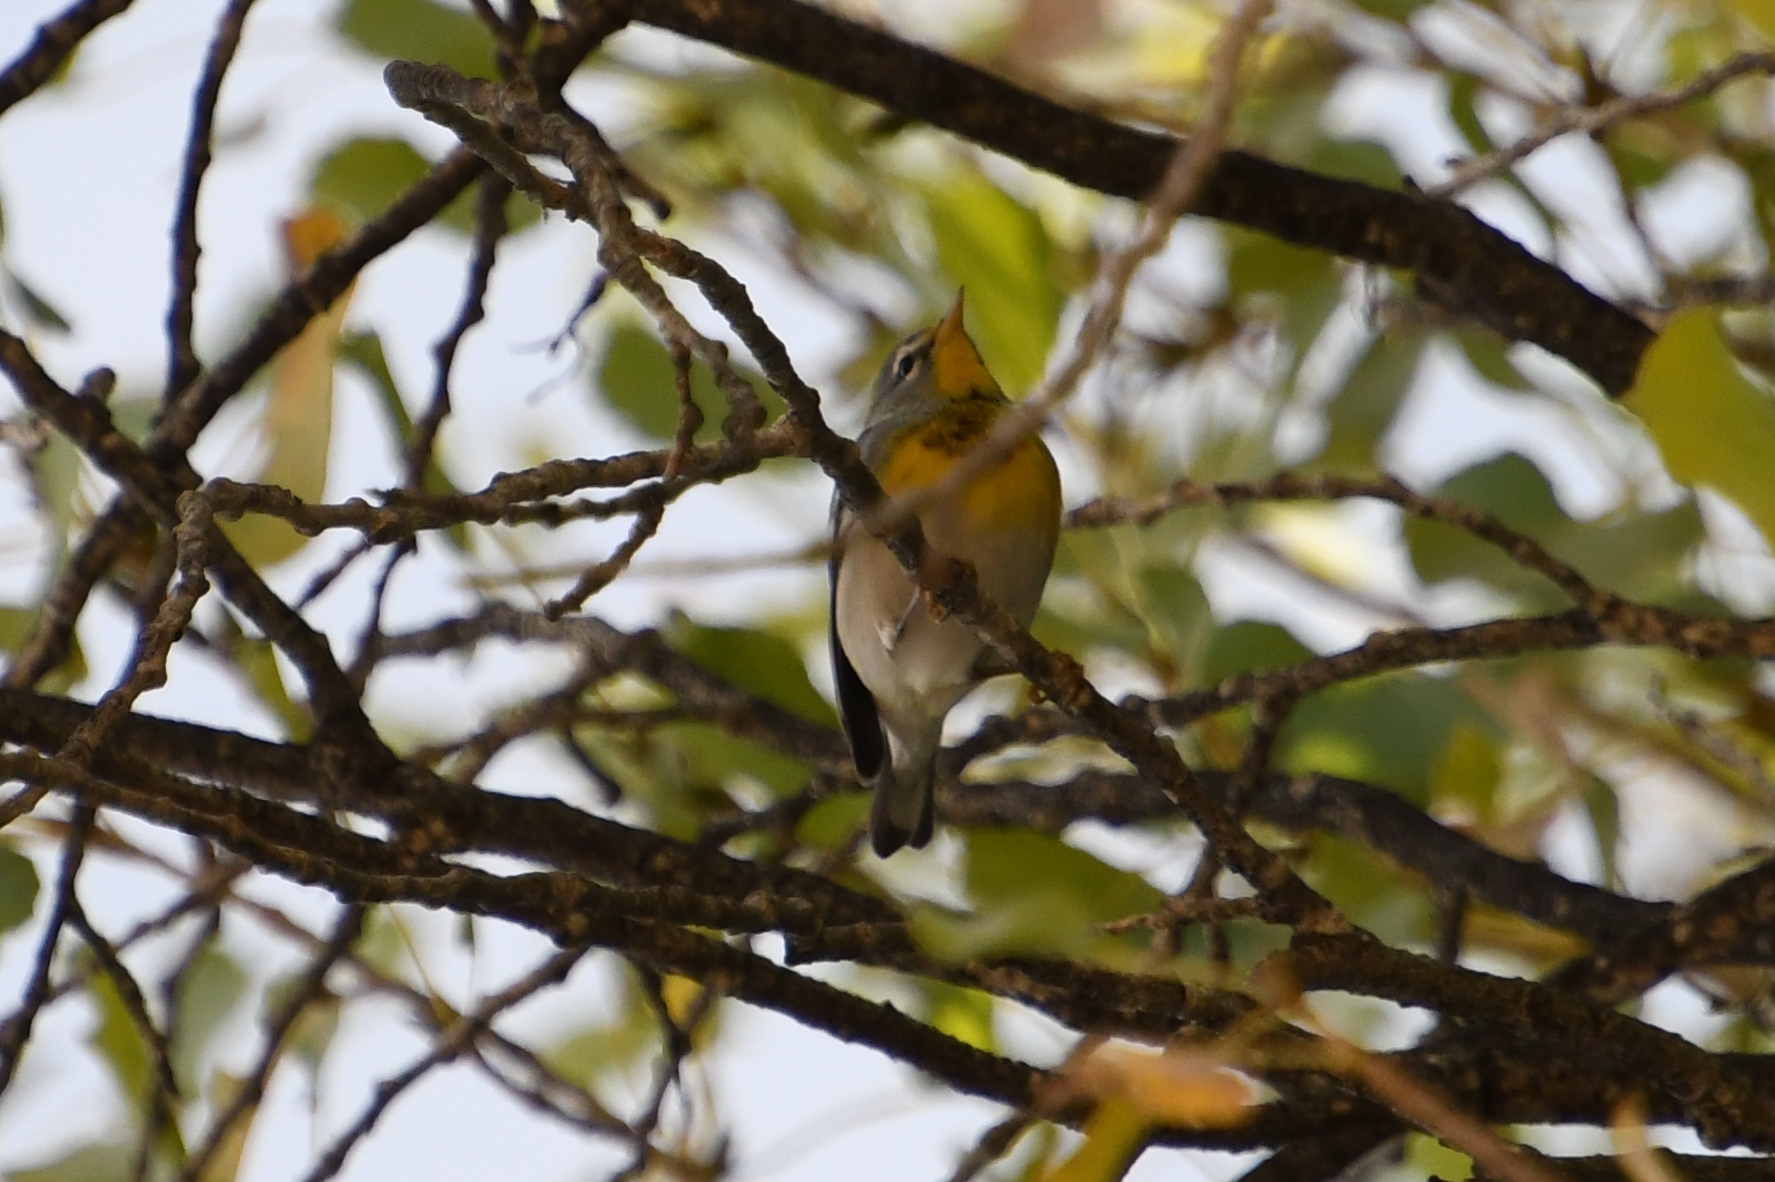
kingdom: Animalia
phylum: Chordata
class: Aves
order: Passeriformes
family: Parulidae
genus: Setophaga
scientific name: Setophaga americana
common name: Northern parula
